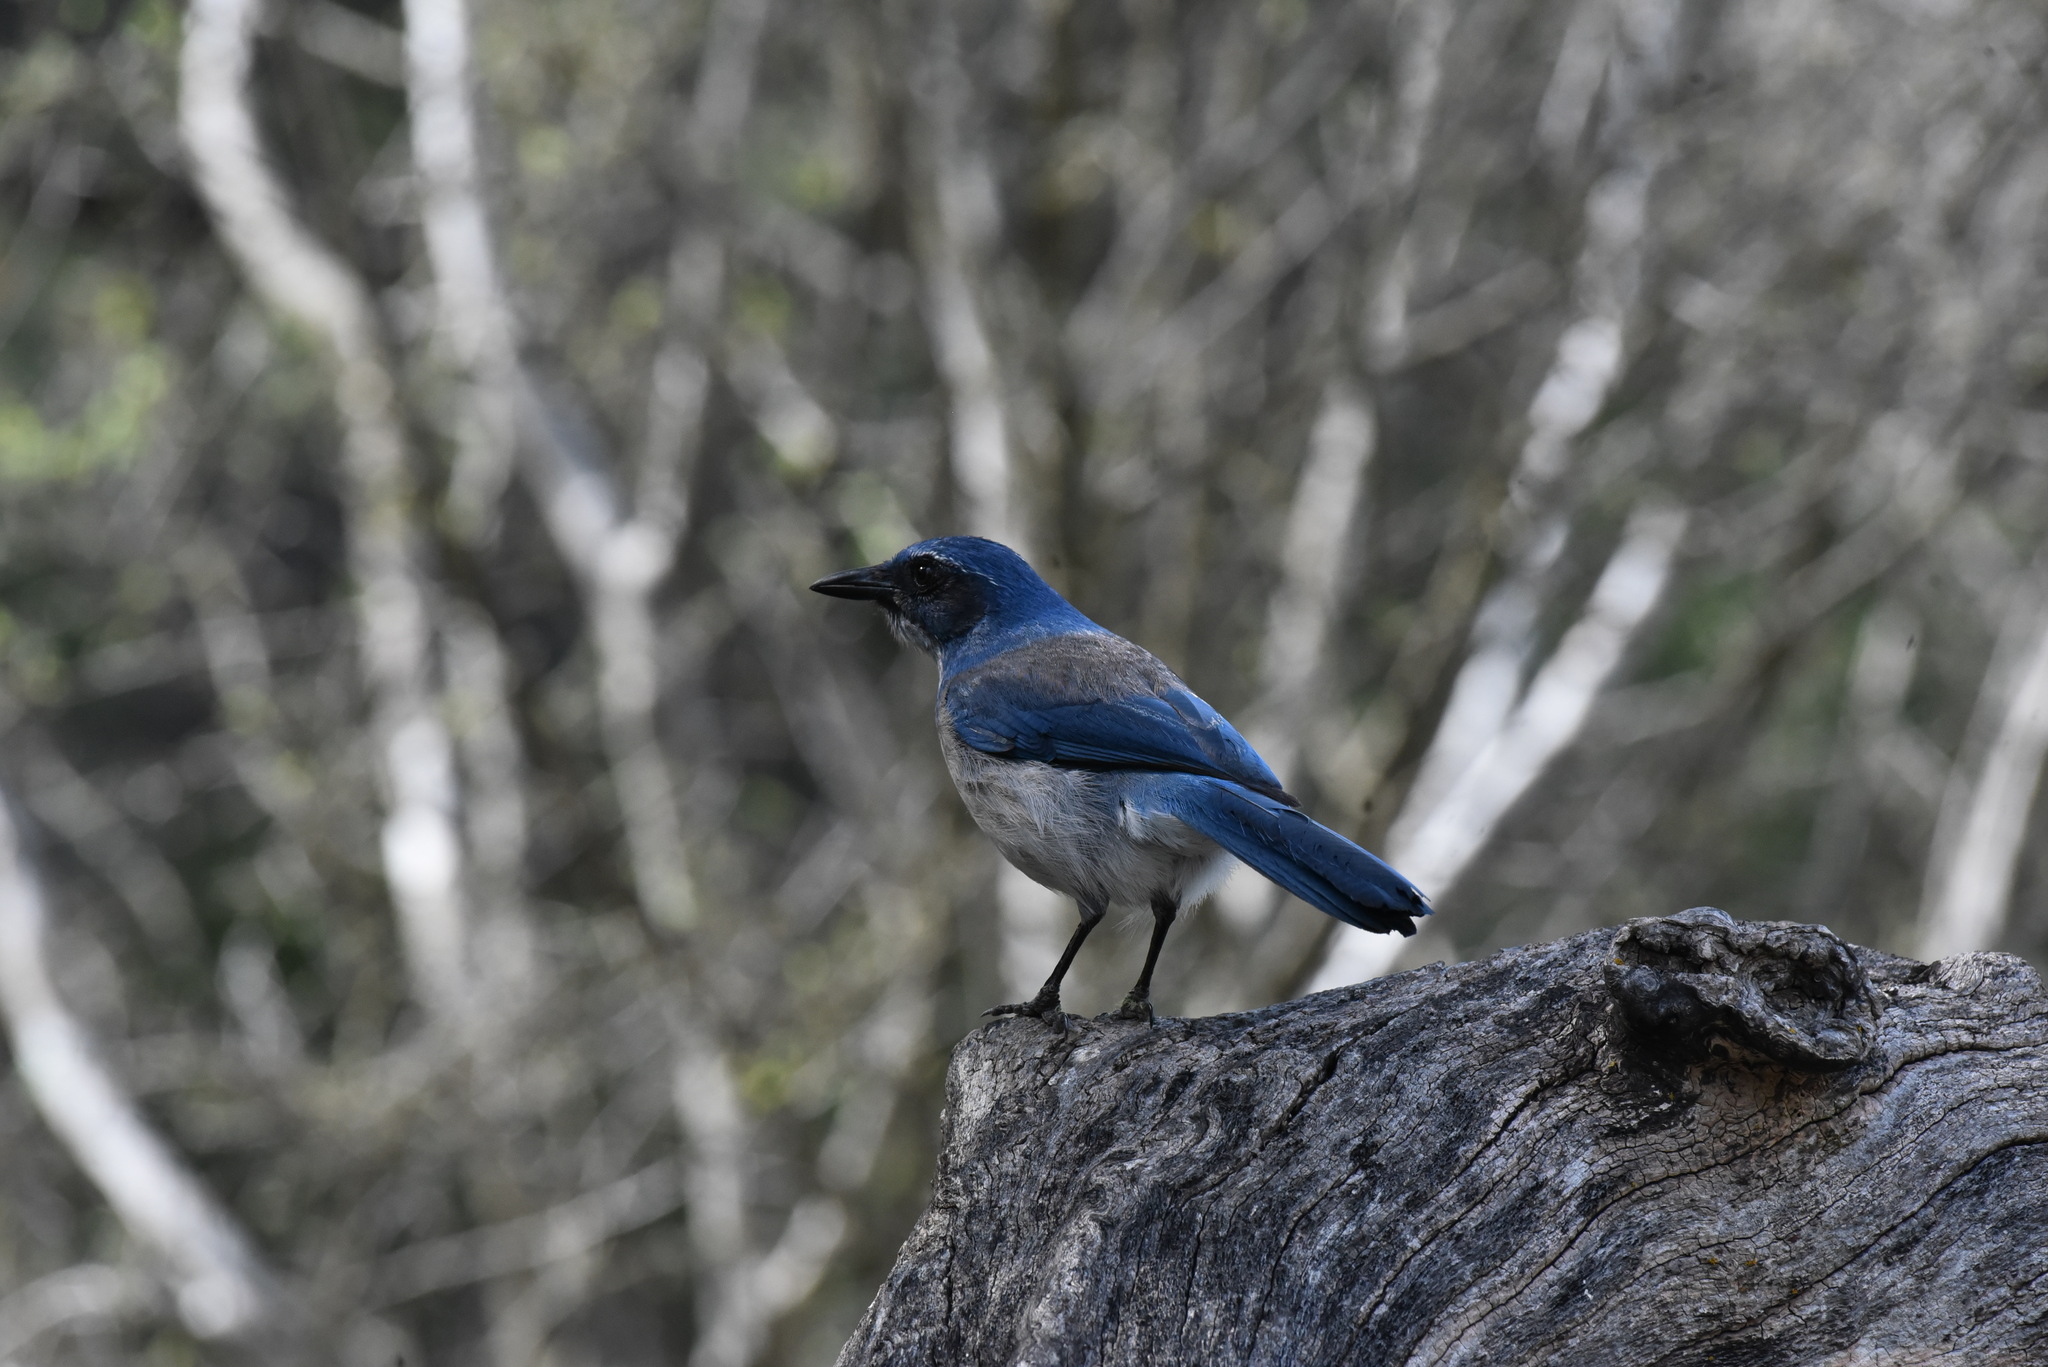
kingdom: Animalia
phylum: Chordata
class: Aves
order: Passeriformes
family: Corvidae
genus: Aphelocoma
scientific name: Aphelocoma woodhouseii
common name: Woodhouse's scrub-jay
